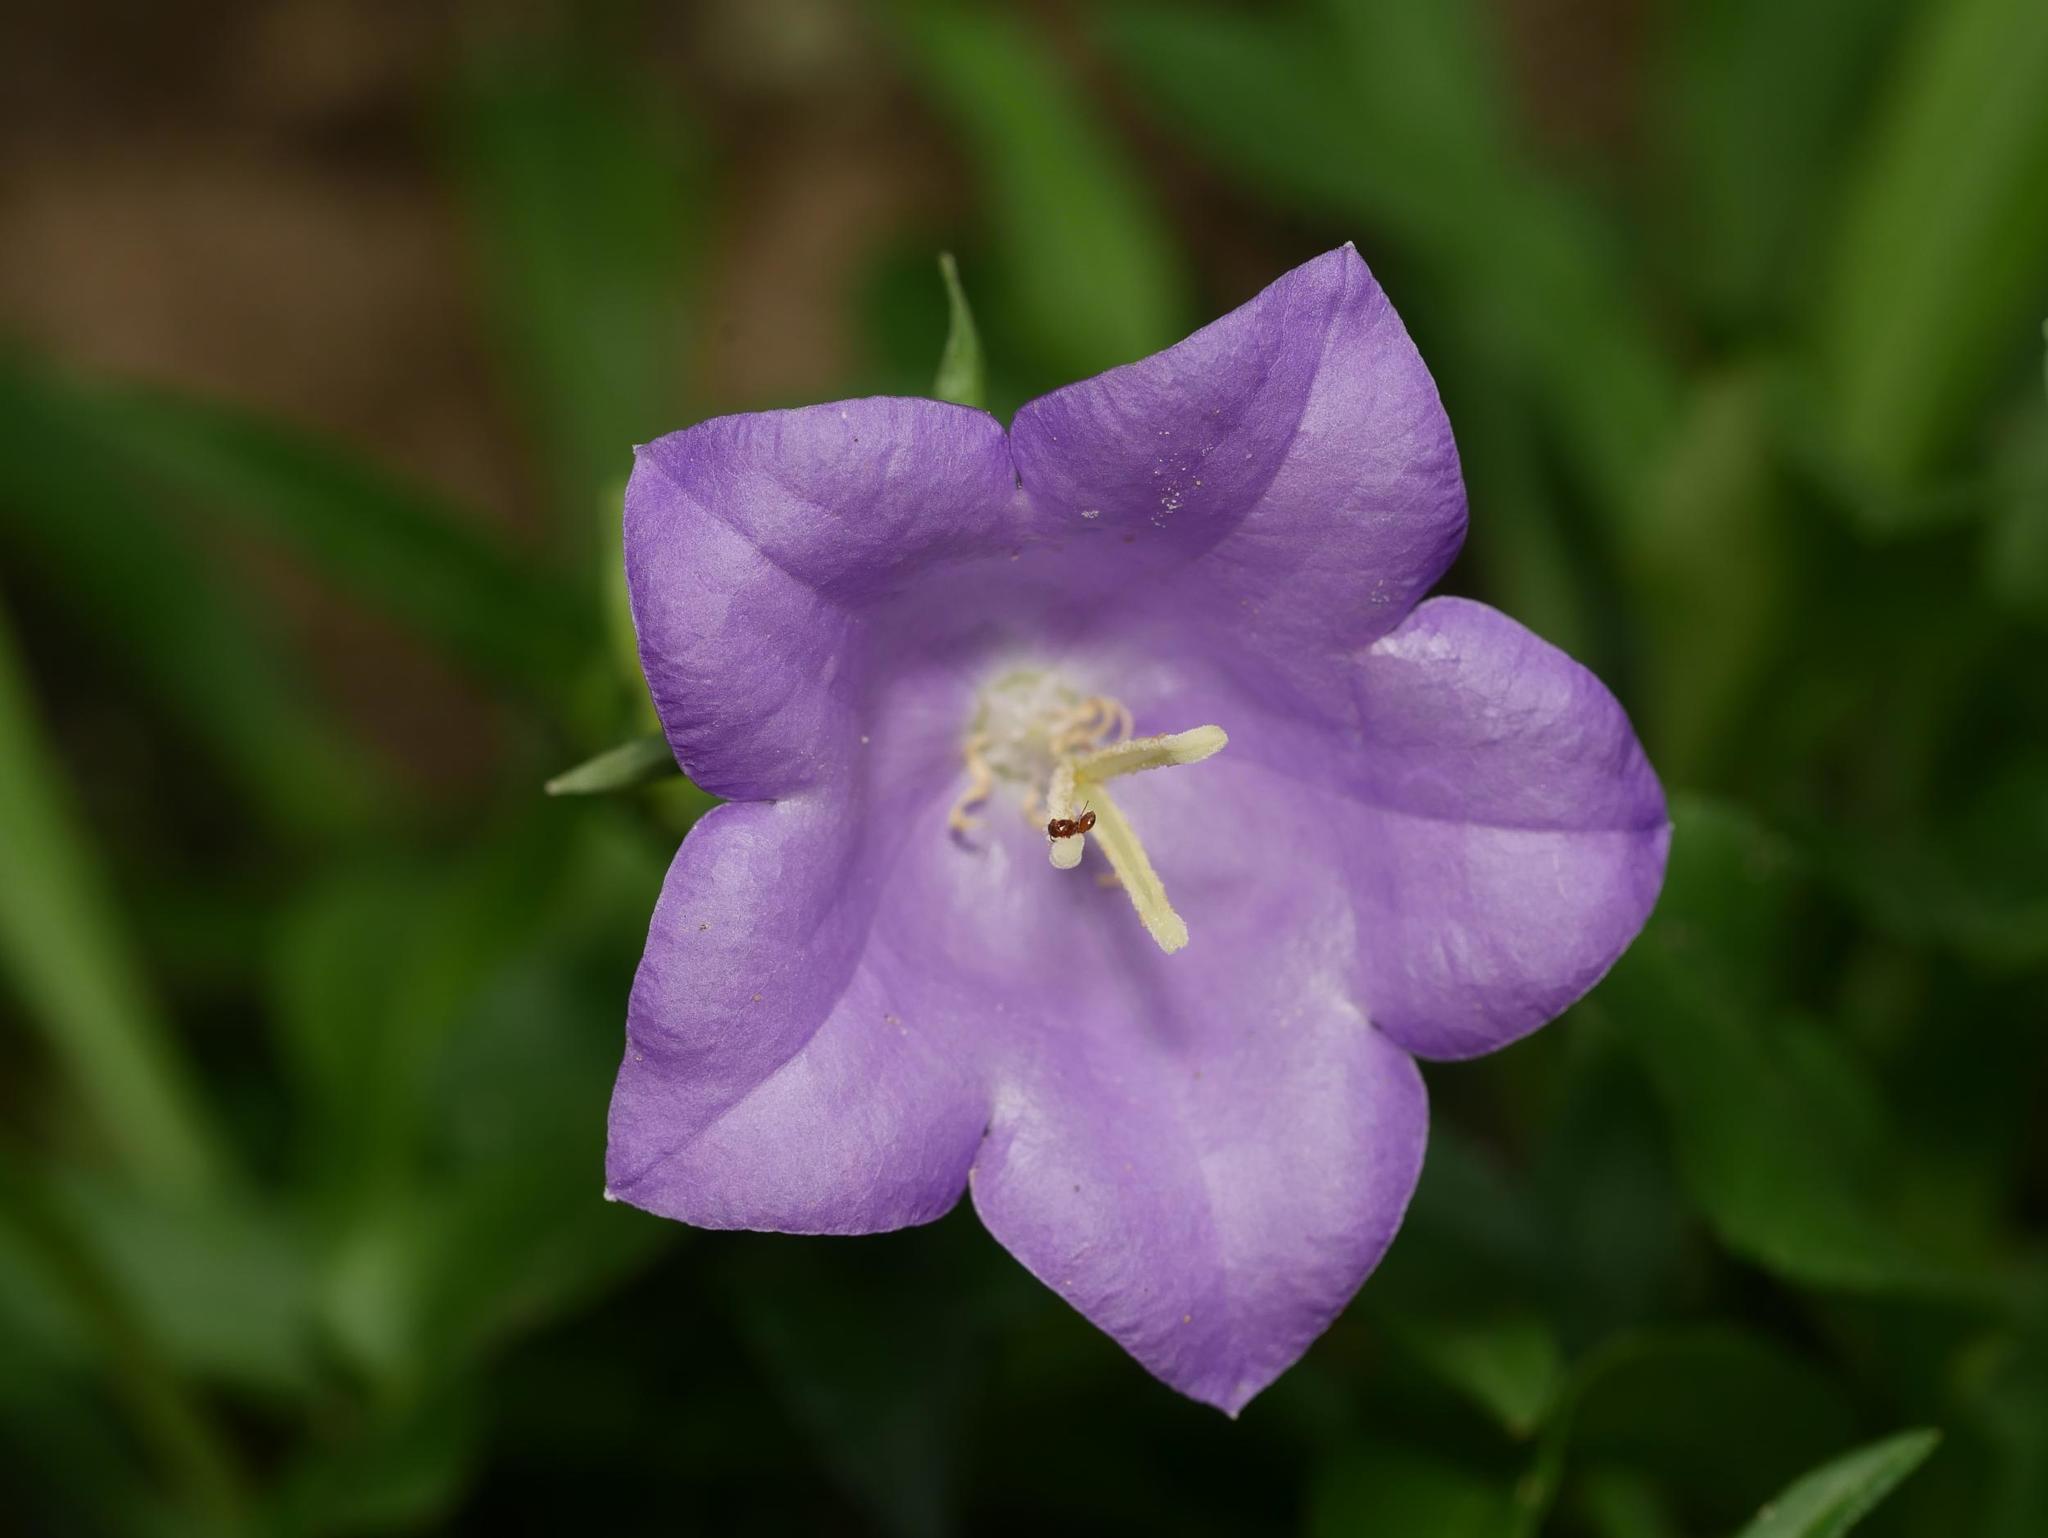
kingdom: Plantae
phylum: Tracheophyta
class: Magnoliopsida
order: Asterales
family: Campanulaceae
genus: Campanula
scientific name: Campanula persicifolia
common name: Peach-leaved bellflower
